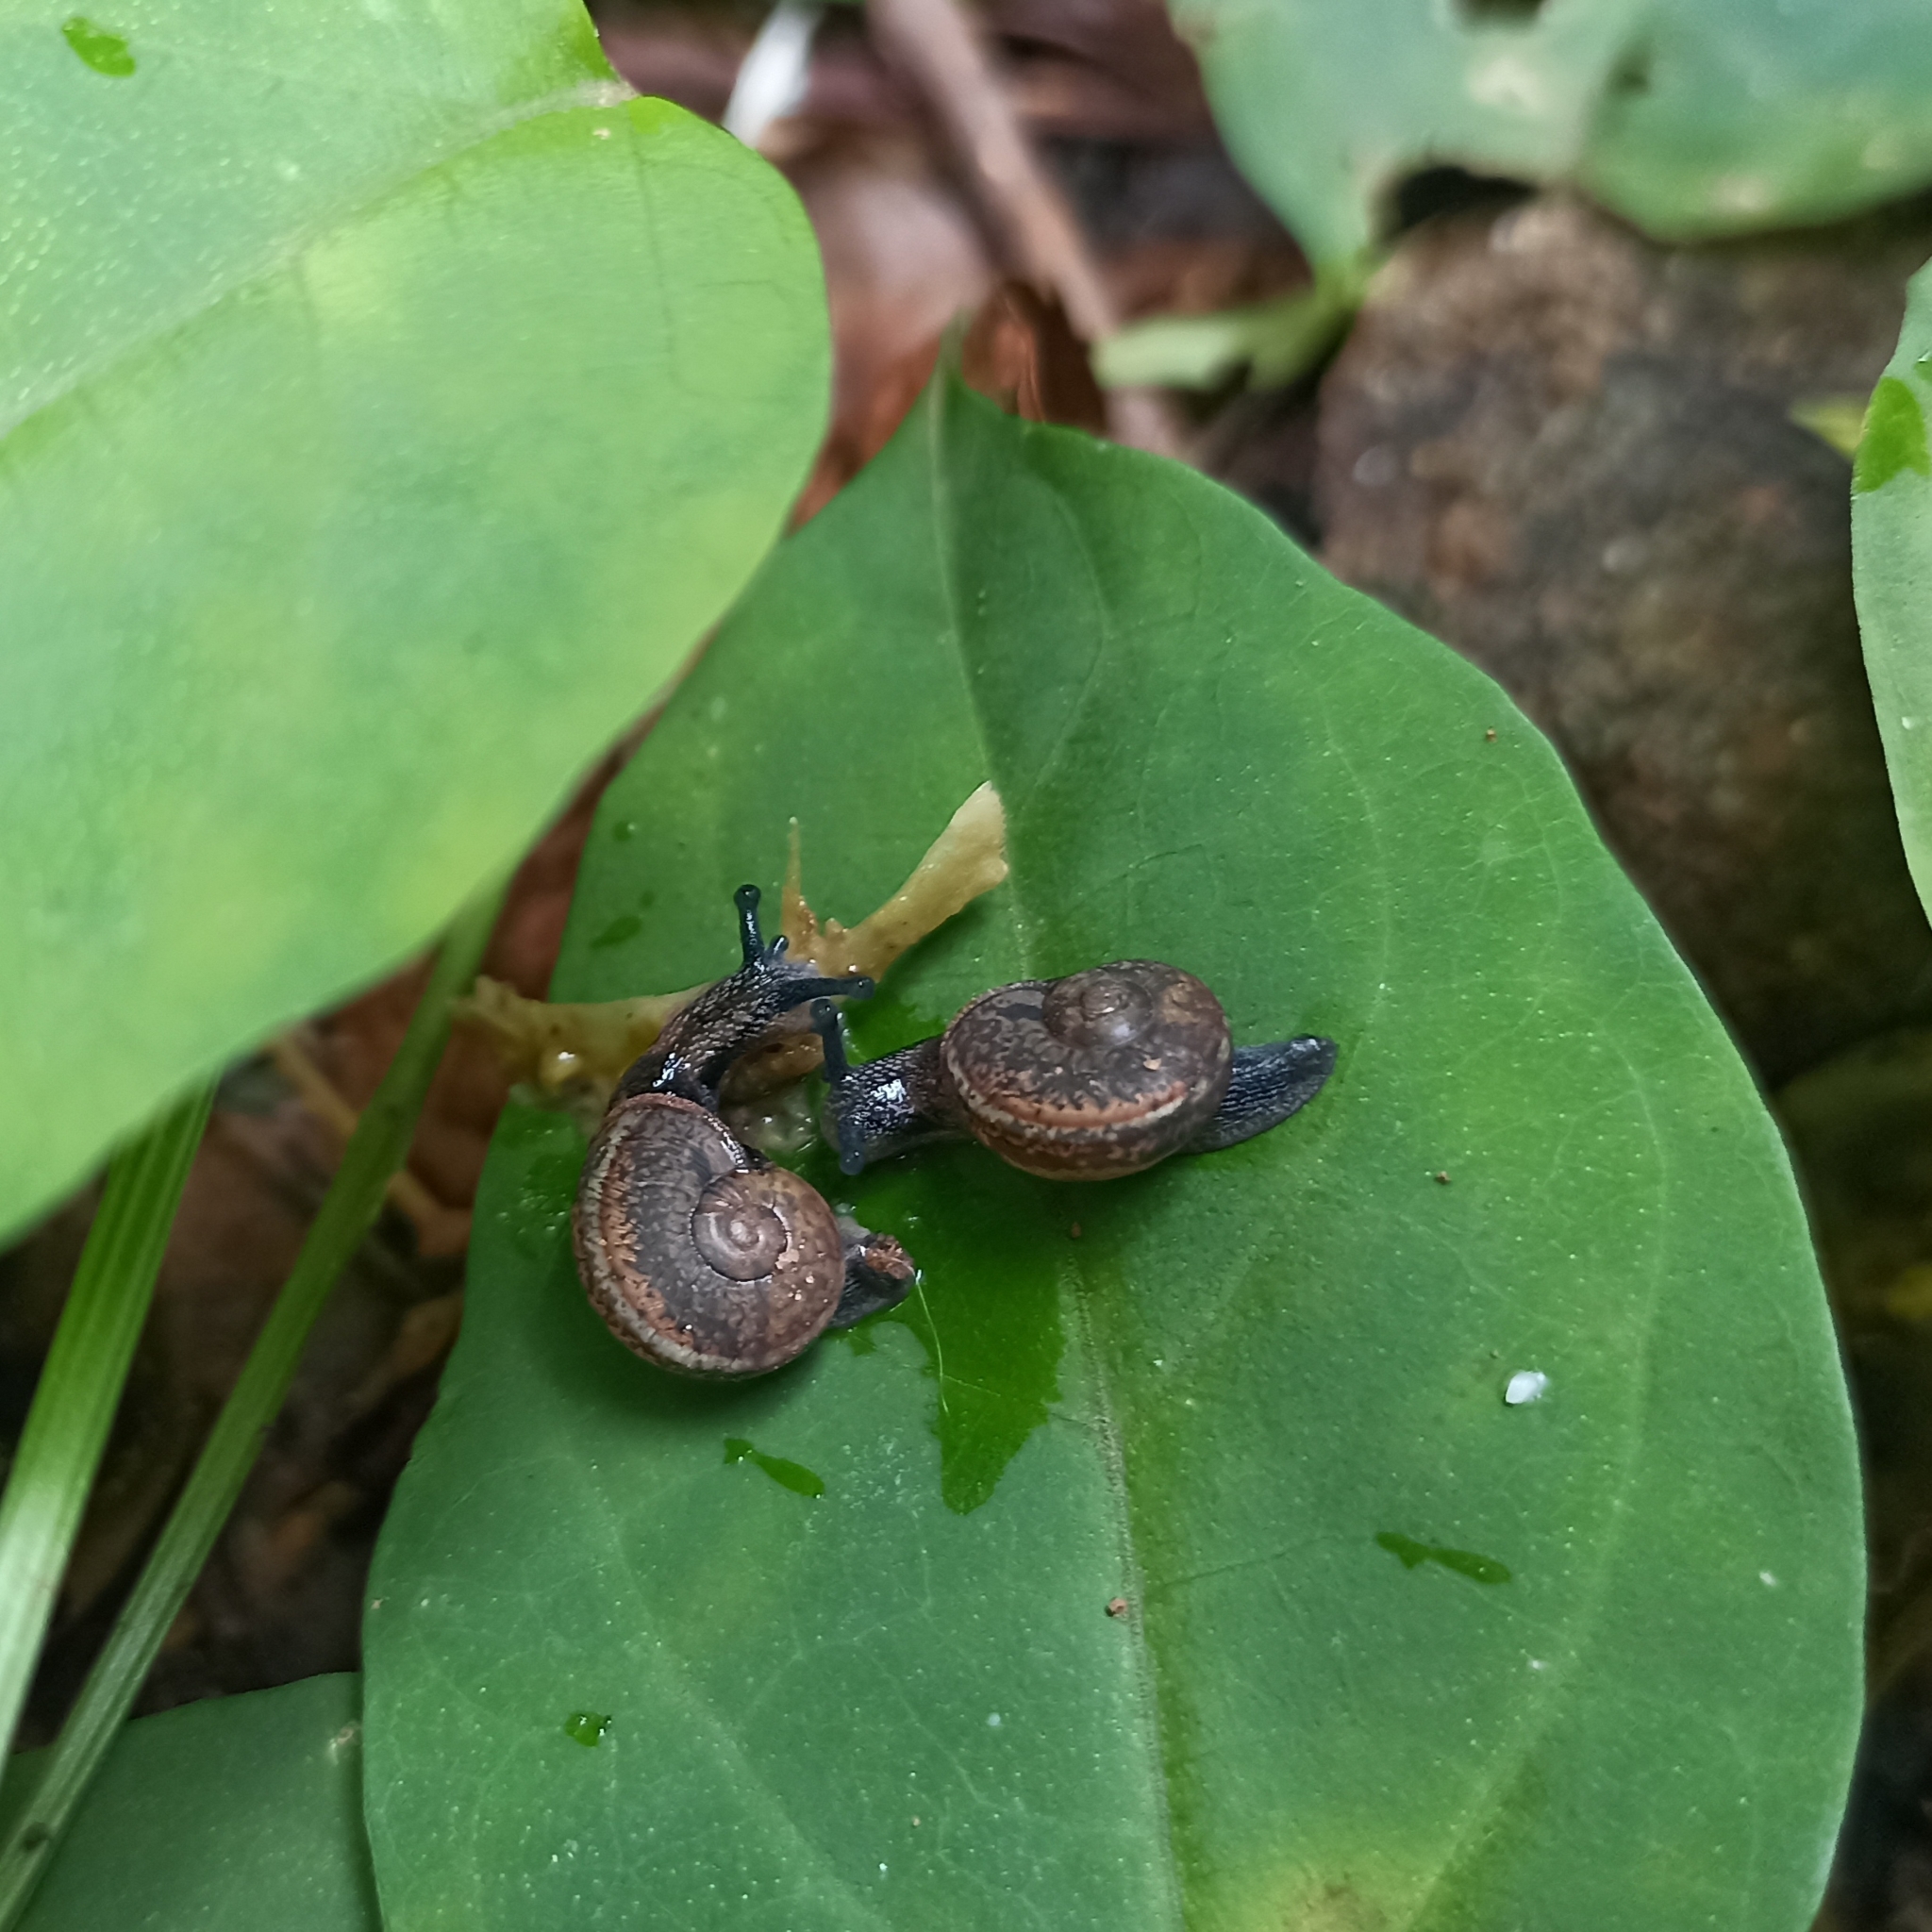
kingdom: Animalia
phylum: Mollusca
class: Gastropoda
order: Stylommatophora
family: Ariophantidae
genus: Ariophanta
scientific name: Ariophanta exilis
